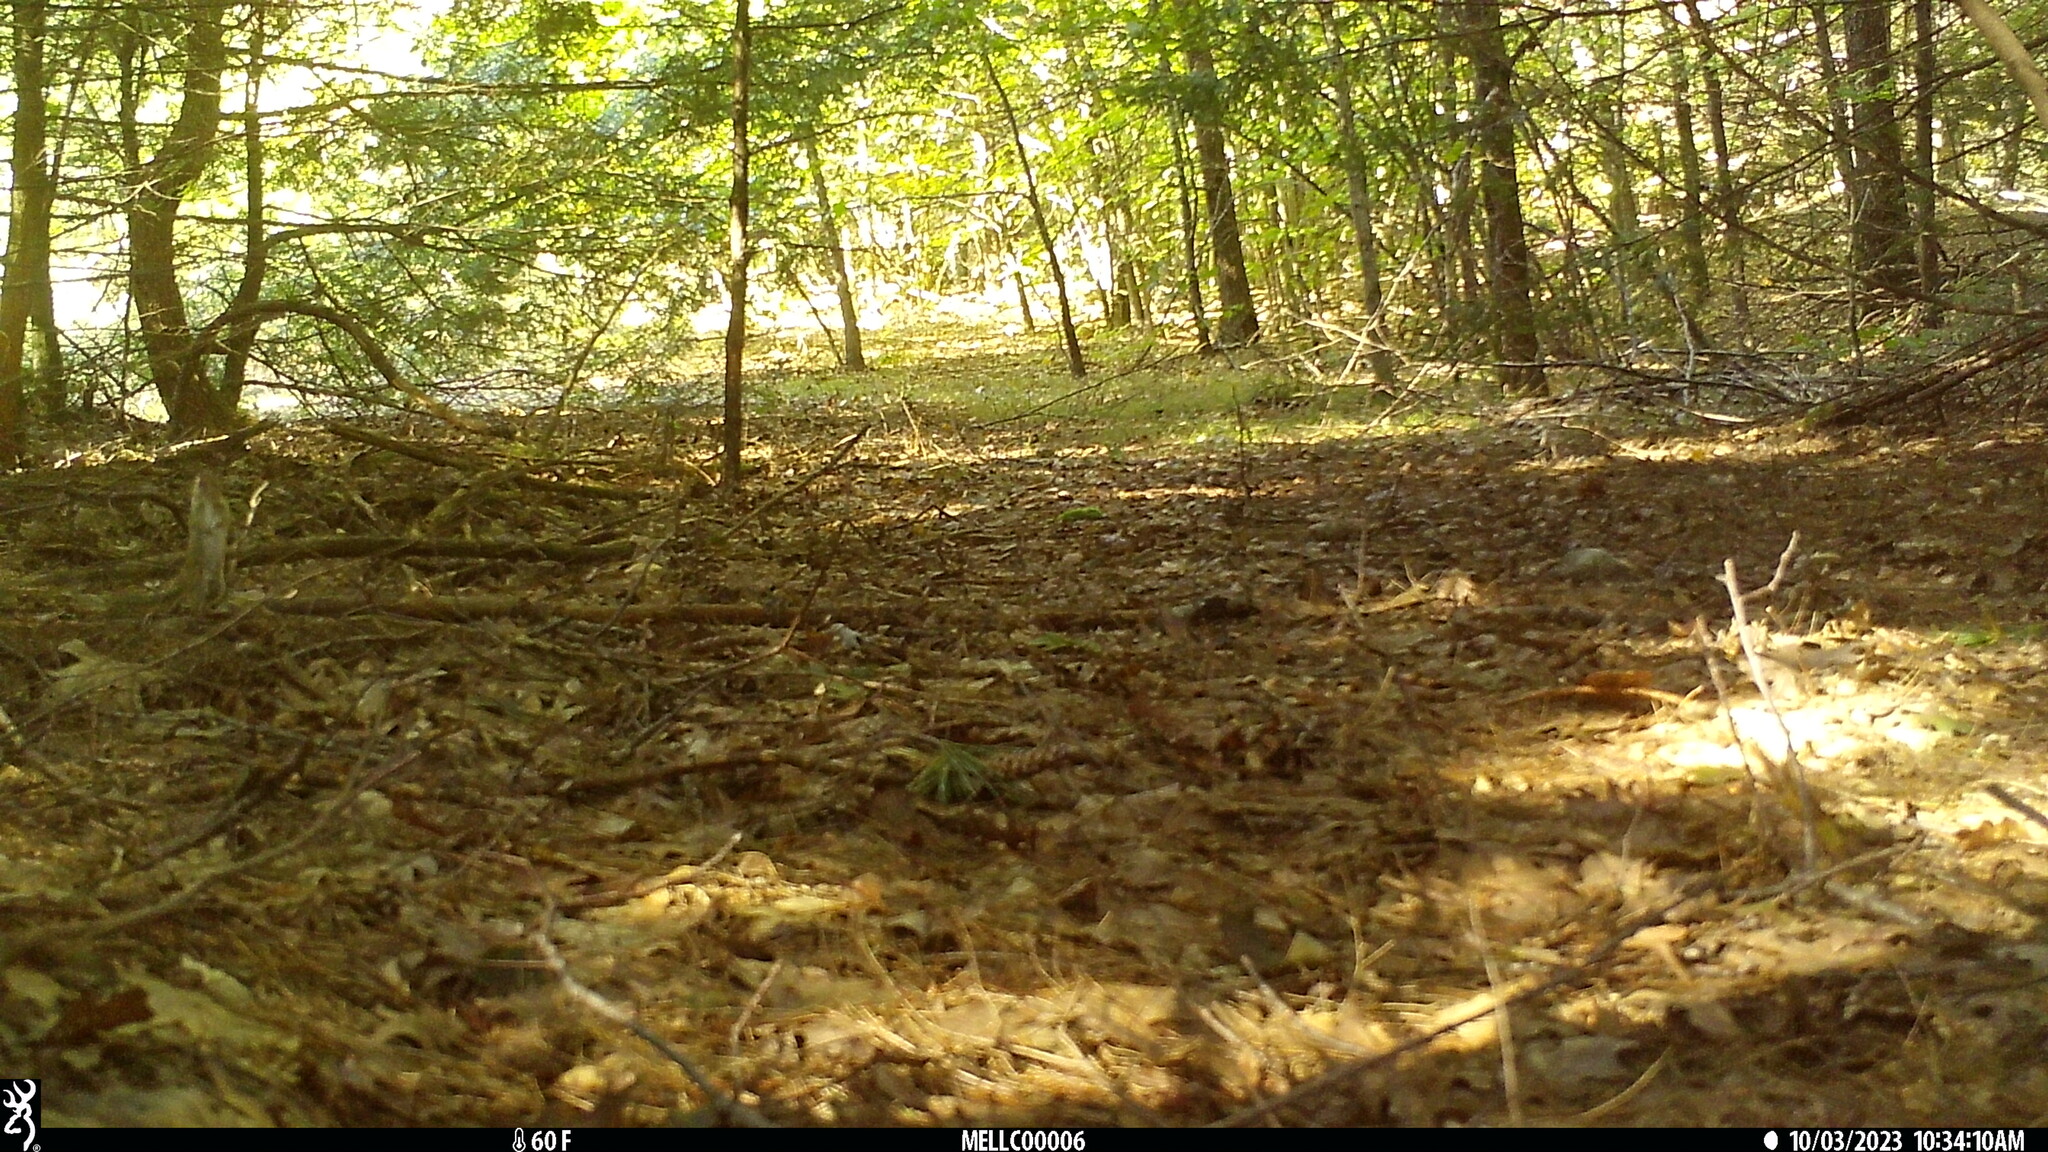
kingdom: Animalia
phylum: Chordata
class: Mammalia
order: Rodentia
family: Sciuridae
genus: Tamias
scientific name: Tamias striatus
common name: Eastern chipmunk
